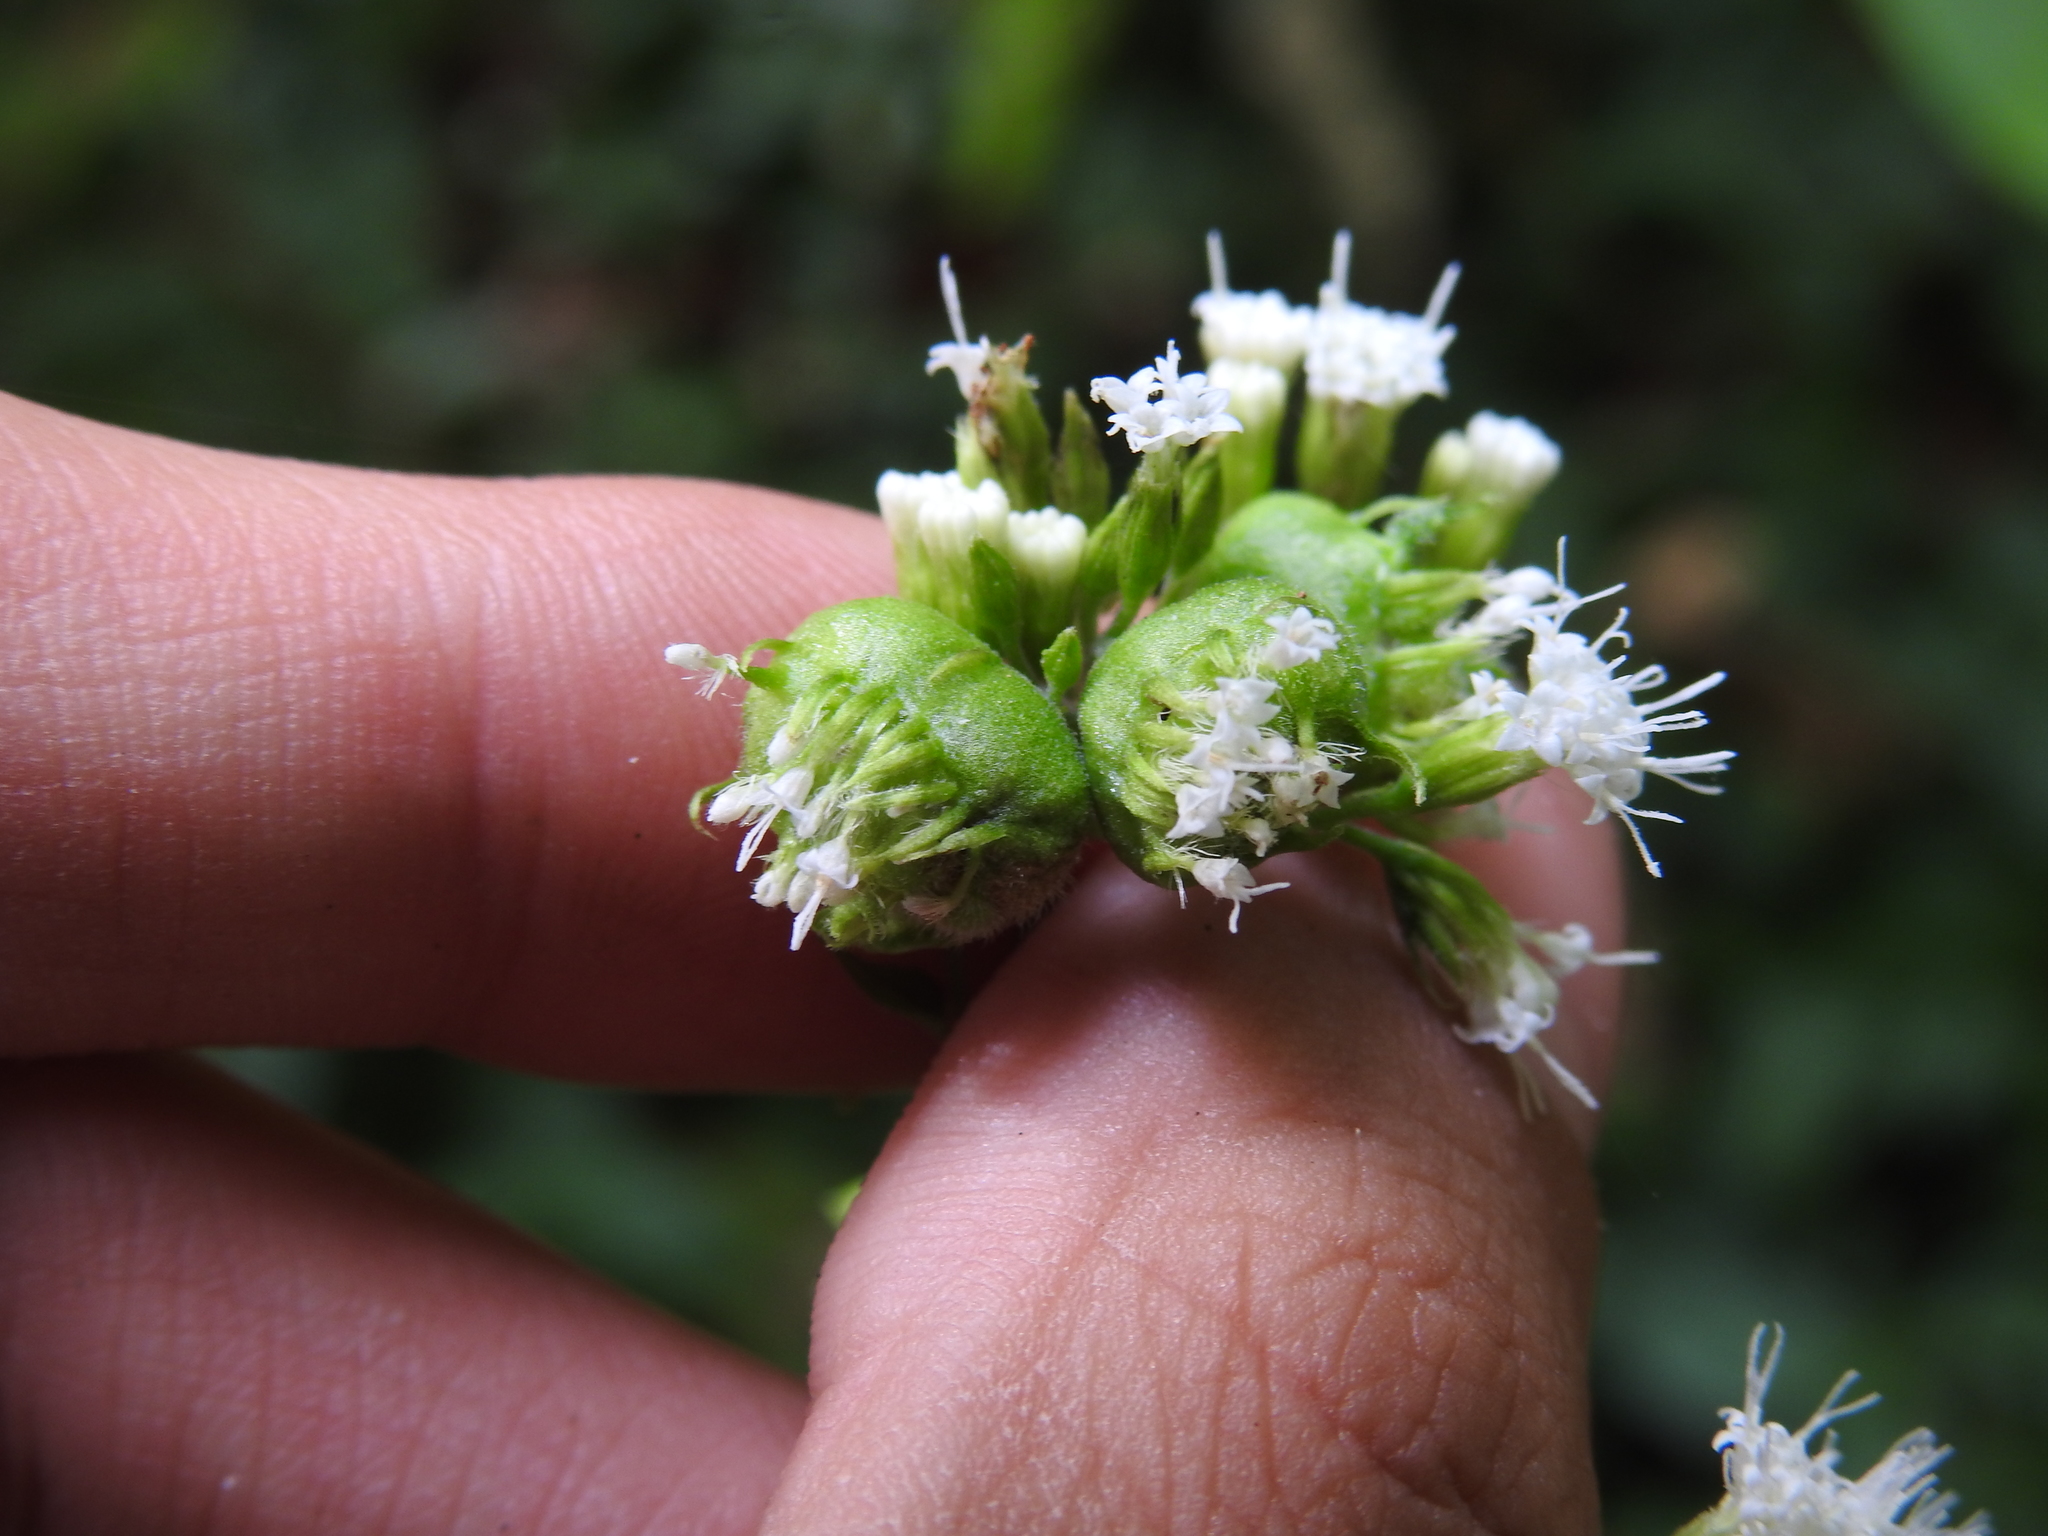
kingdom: Animalia
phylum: Arthropoda
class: Insecta
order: Diptera
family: Cecidomyiidae
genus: Schizomyia
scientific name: Schizomyia eupatoriflorae
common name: Boneset flower gall midge
